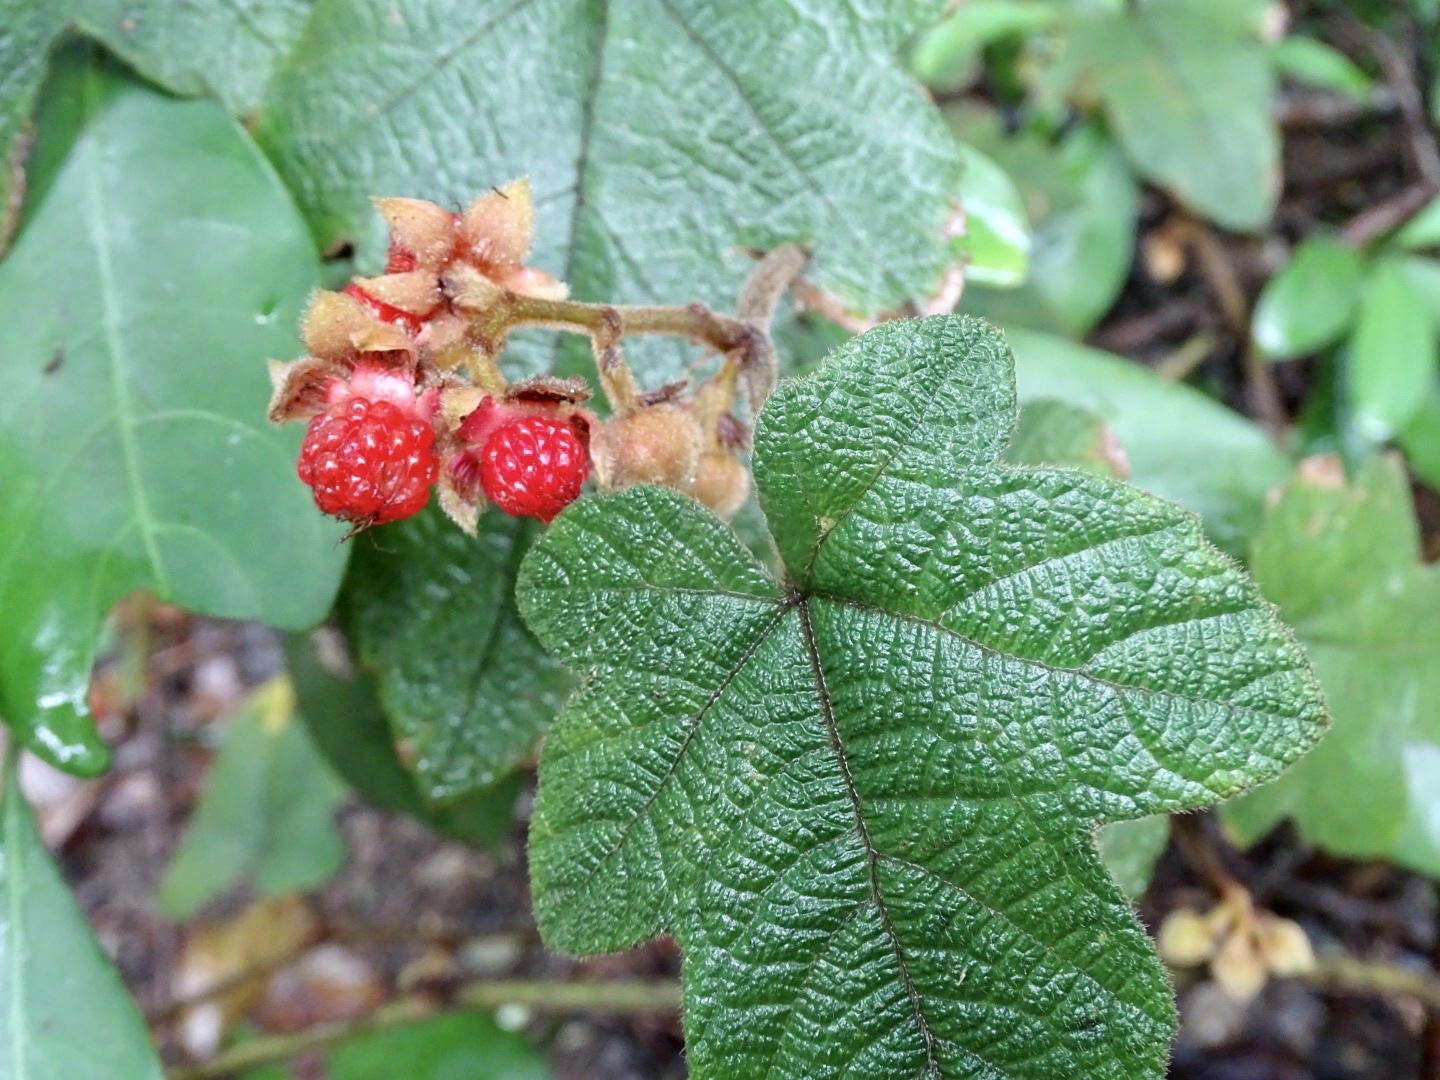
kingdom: Plantae
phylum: Tracheophyta
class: Magnoliopsida
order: Rosales
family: Rosaceae
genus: Rubus
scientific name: Rubus reflexus
